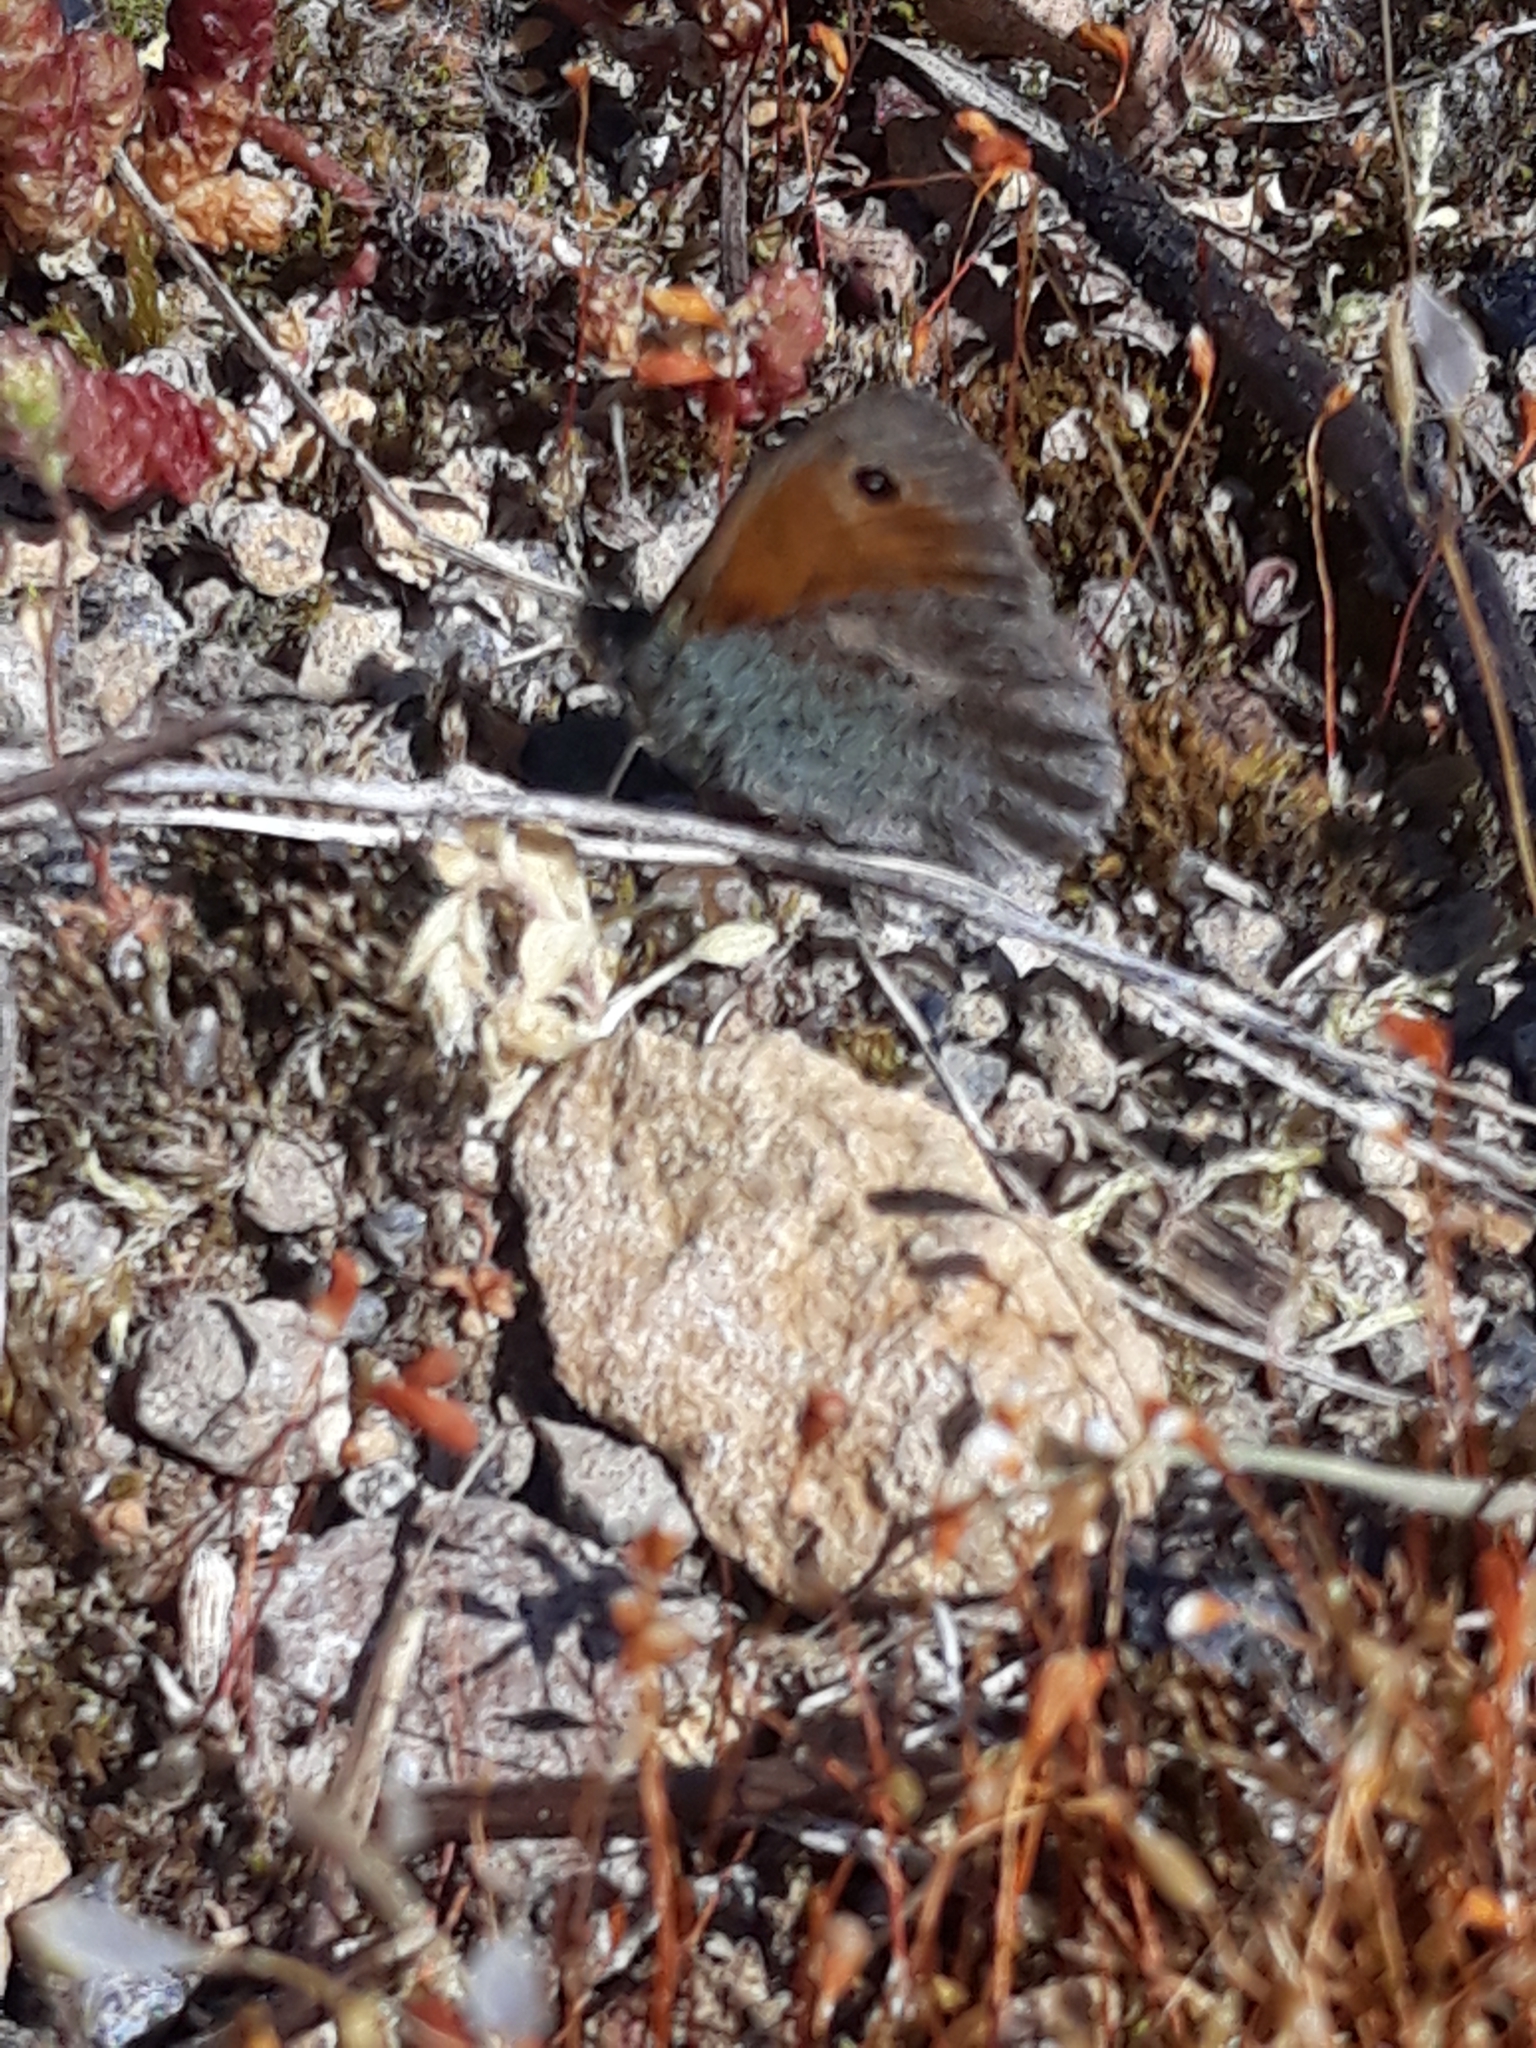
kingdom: Animalia
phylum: Arthropoda
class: Insecta
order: Lepidoptera
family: Nymphalidae
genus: Coenonympha
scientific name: Coenonympha pamphilus
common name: Small heath
